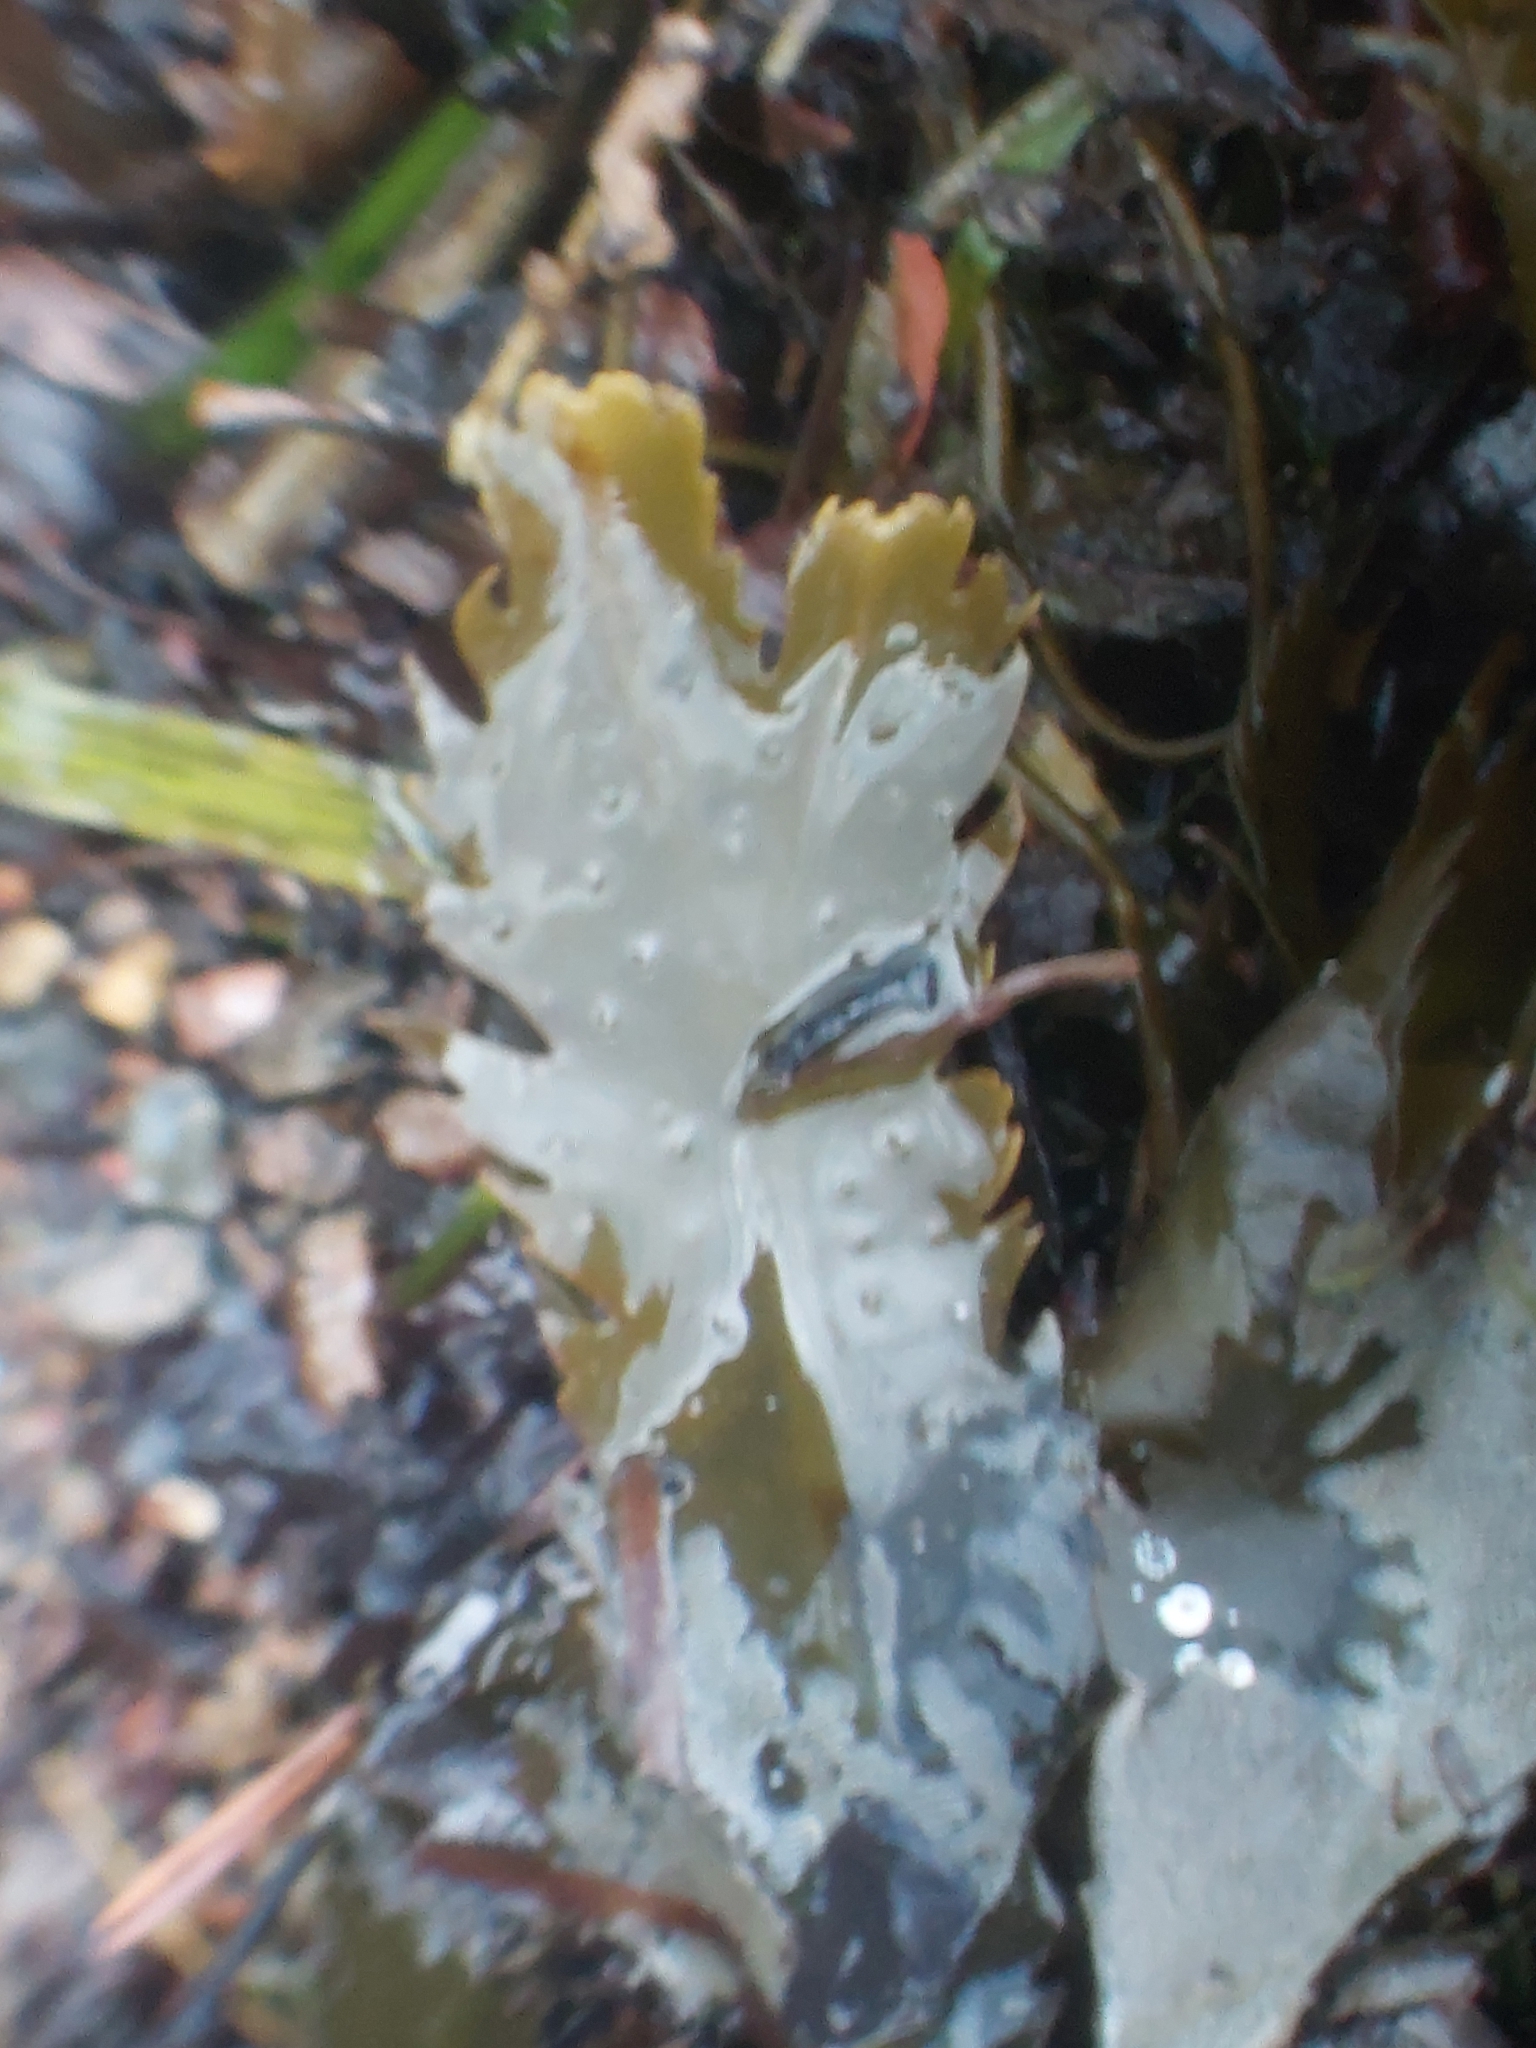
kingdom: Chromista
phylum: Ochrophyta
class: Phaeophyceae
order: Fucales
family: Fucaceae
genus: Fucus
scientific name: Fucus serratus
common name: Toothed wrack
